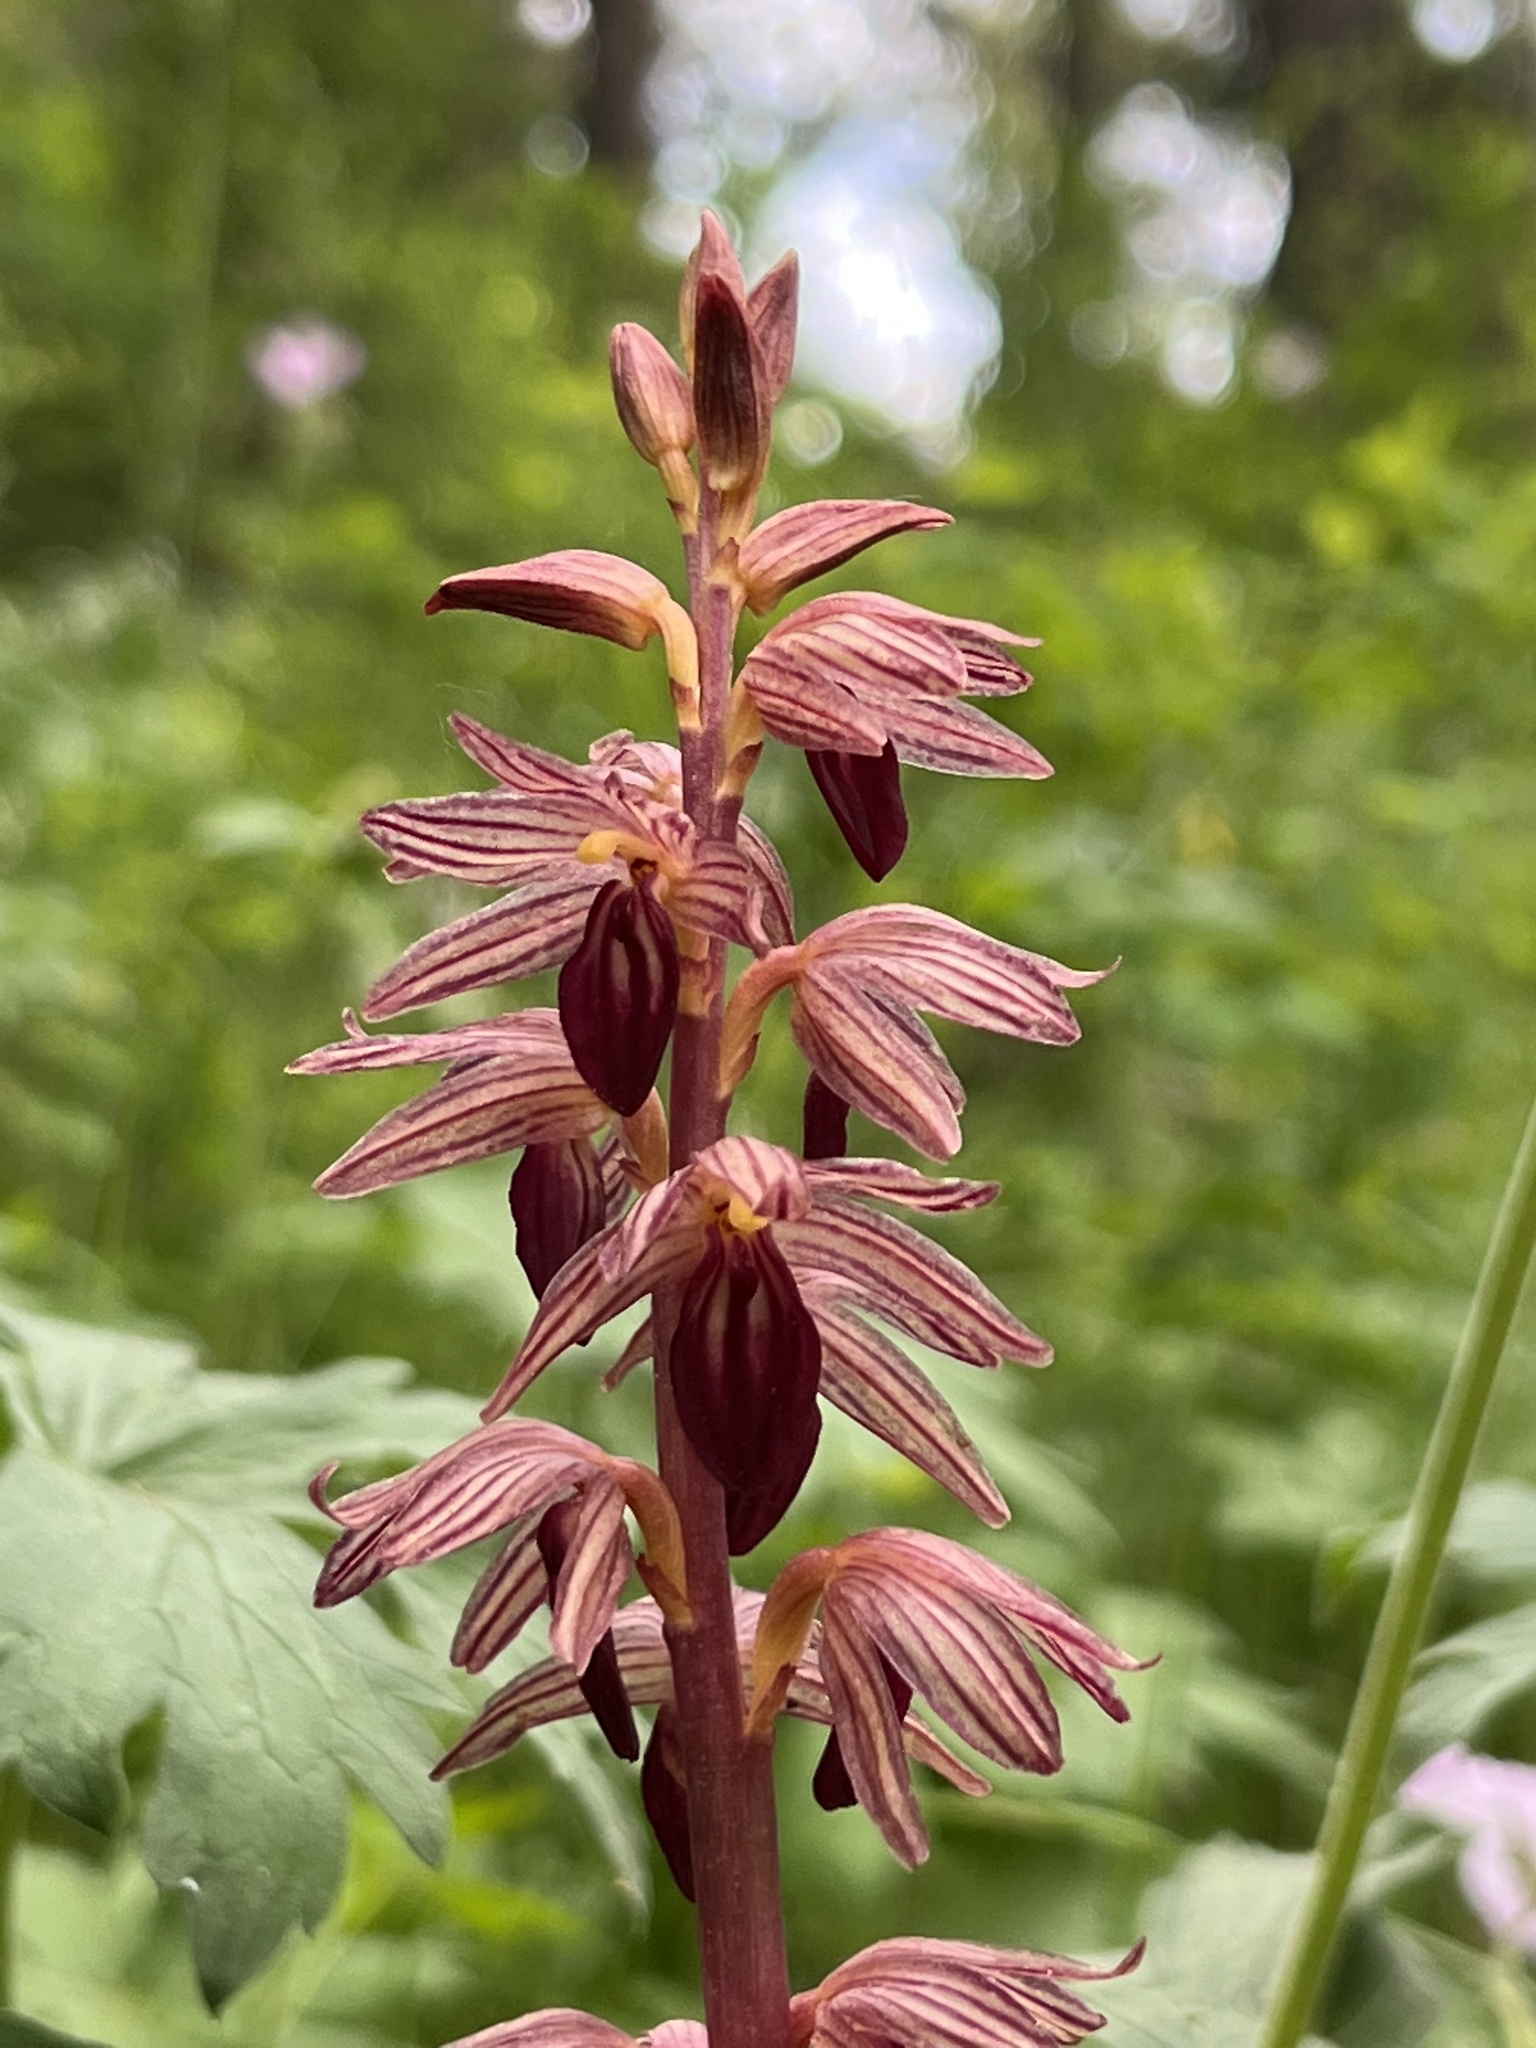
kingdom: Plantae
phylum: Tracheophyta
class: Liliopsida
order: Asparagales
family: Orchidaceae
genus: Corallorhiza
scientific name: Corallorhiza striata
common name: Hooded coralroot
